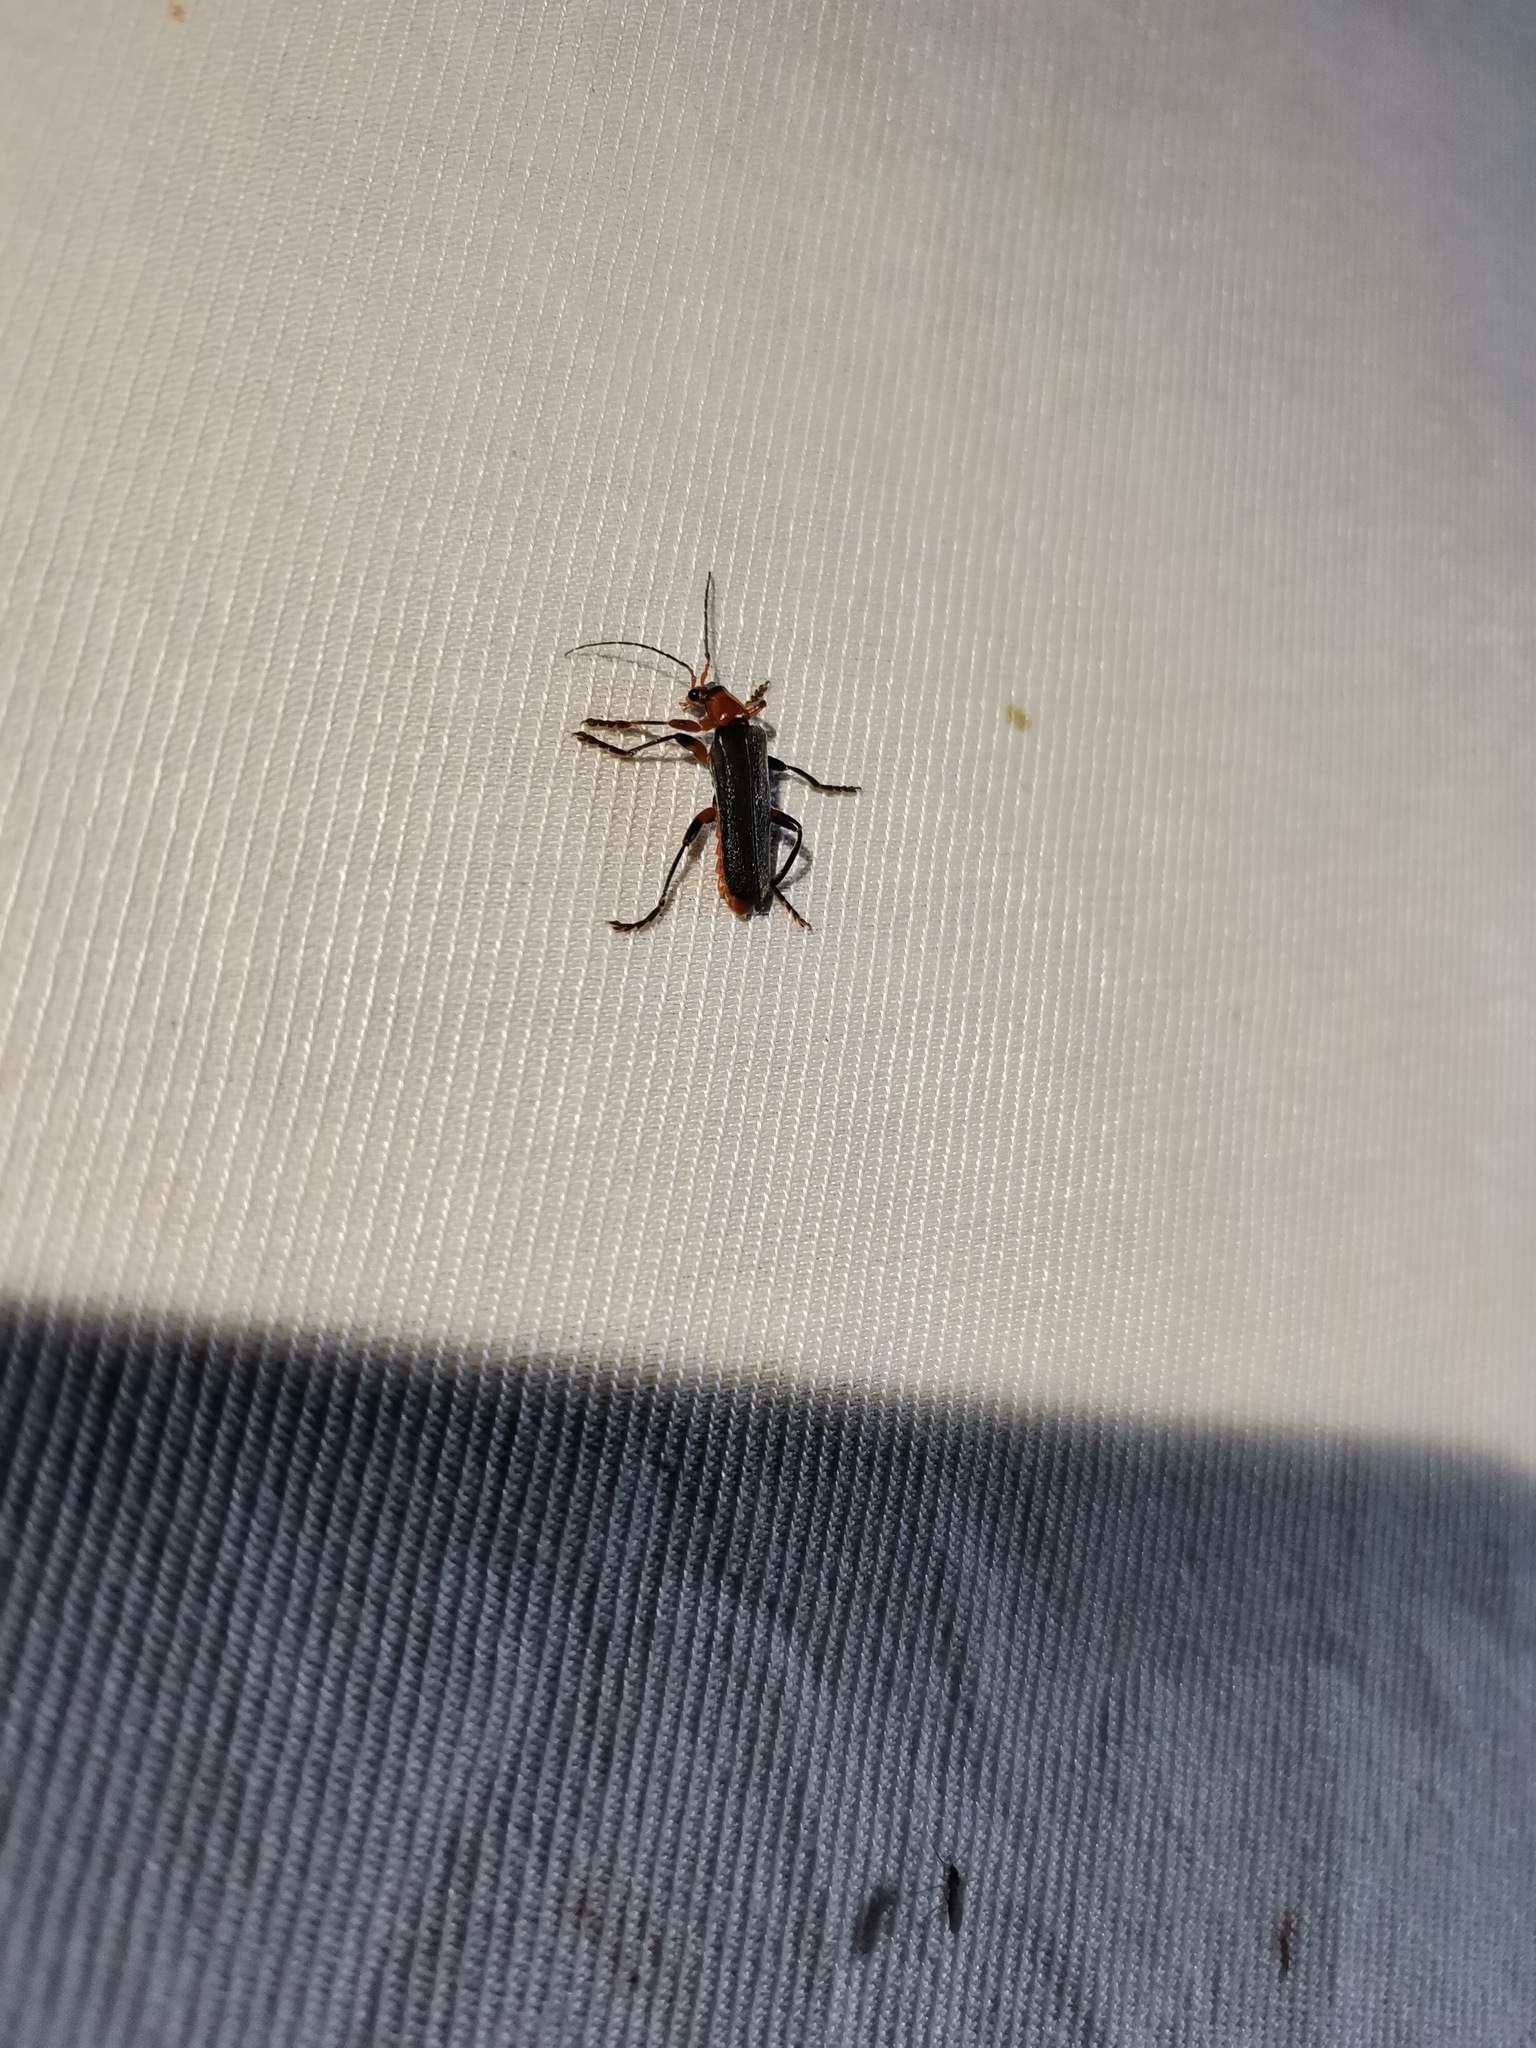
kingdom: Animalia
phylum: Arthropoda
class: Insecta
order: Coleoptera
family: Cantharidae
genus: Cantharis
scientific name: Cantharis pellucida
